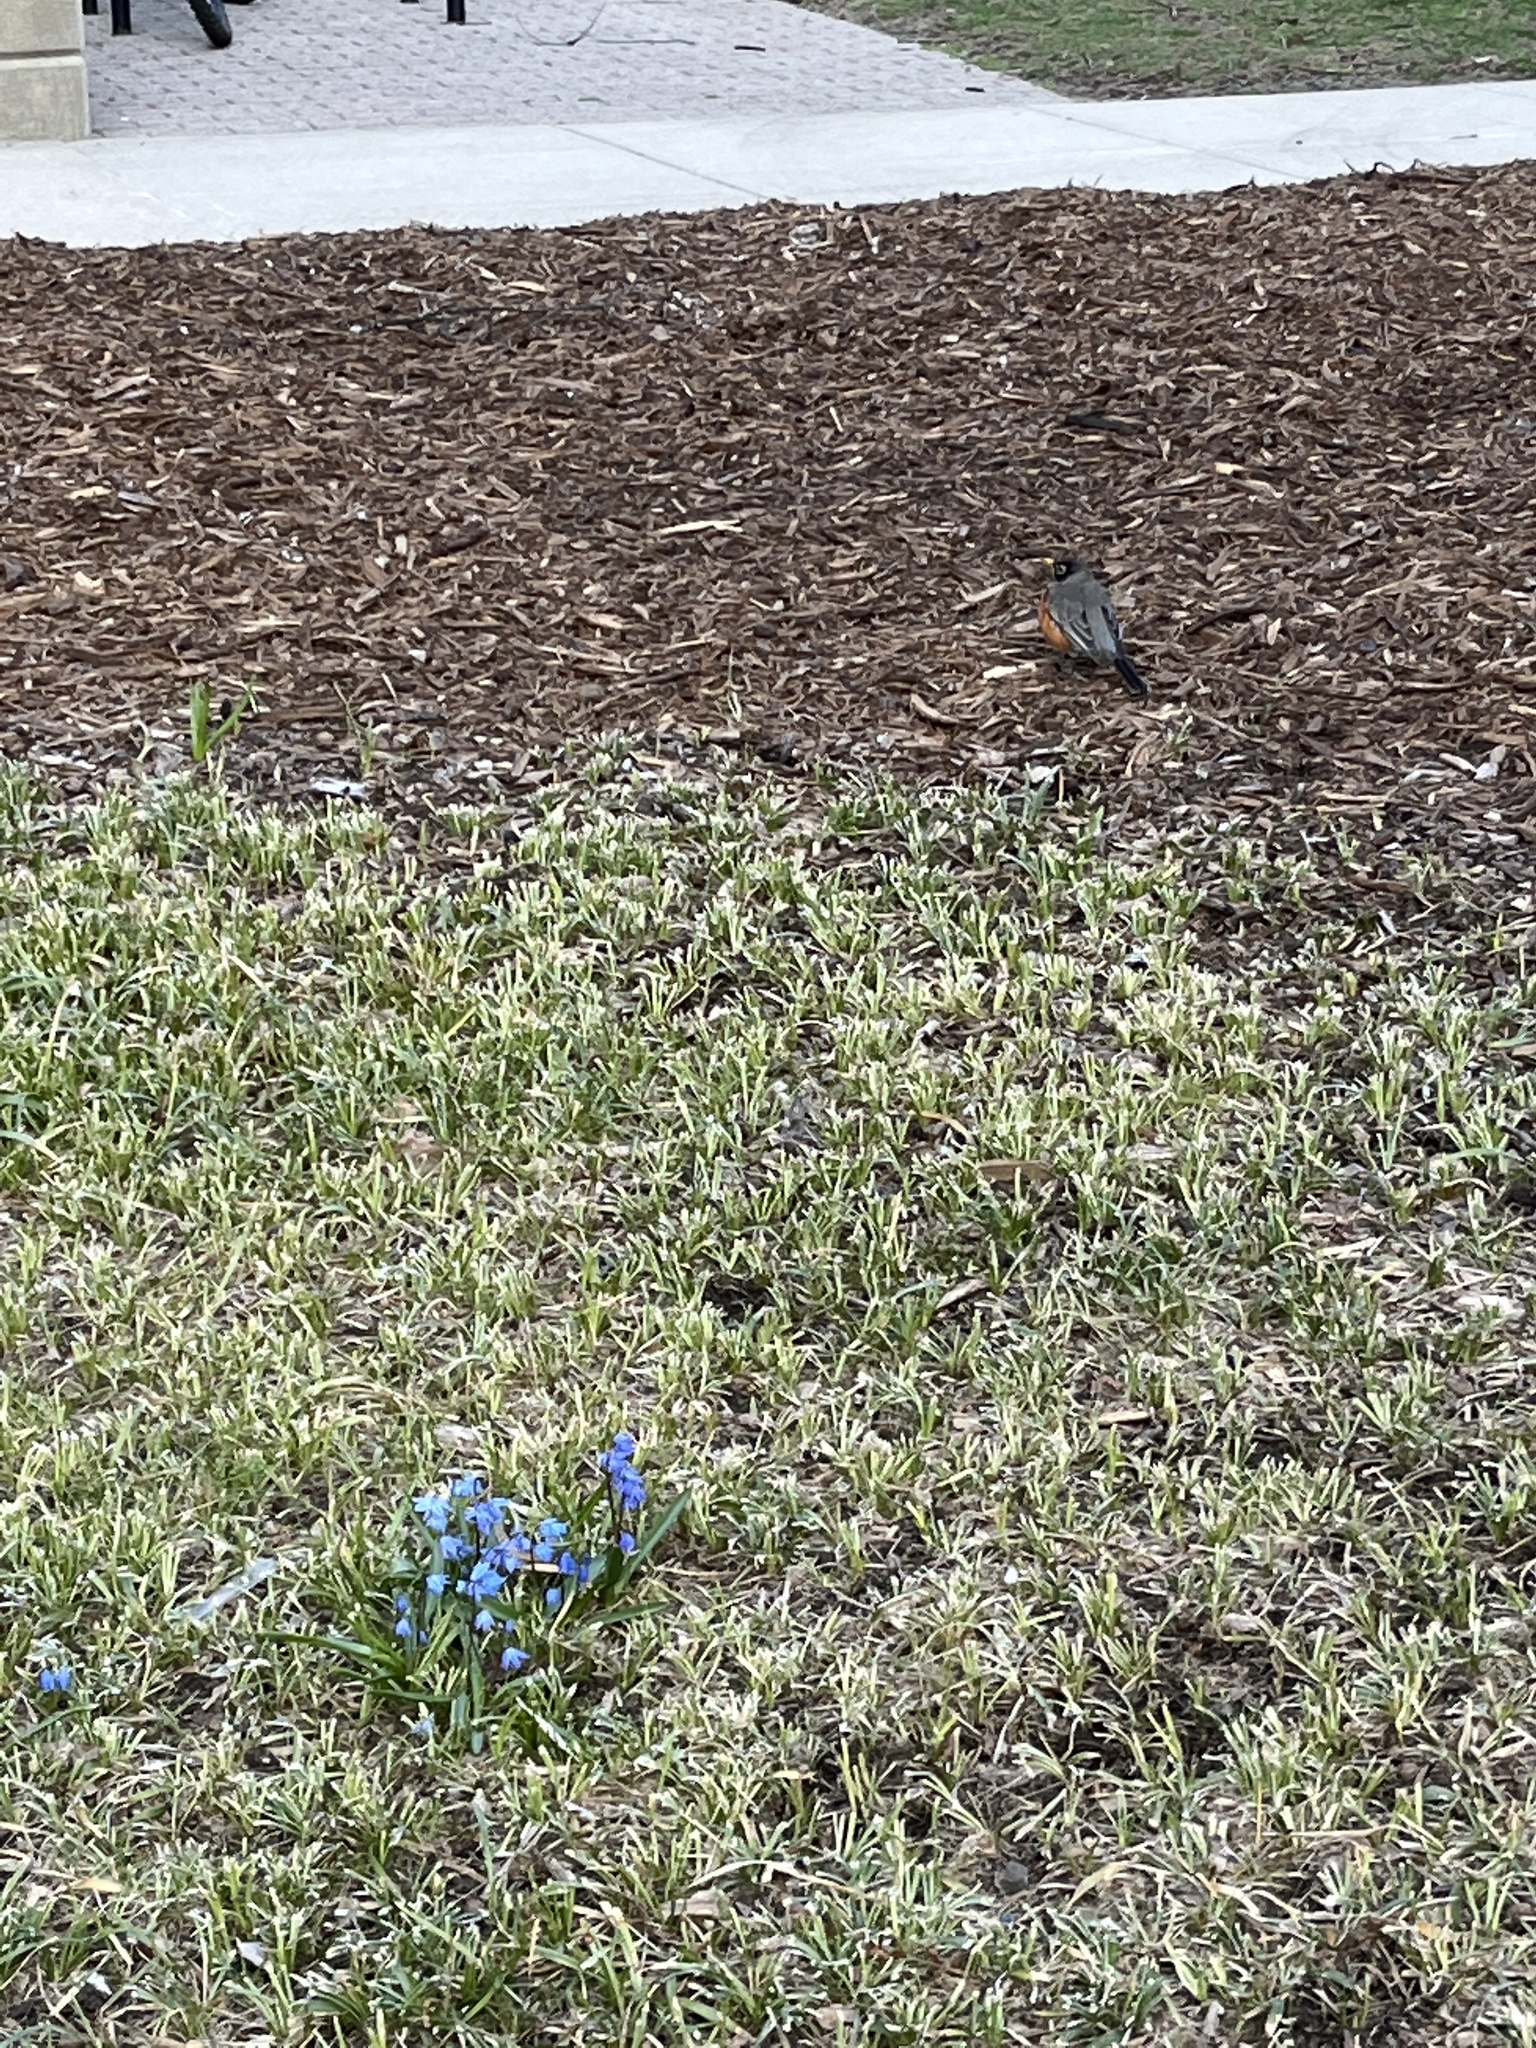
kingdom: Animalia
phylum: Chordata
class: Aves
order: Passeriformes
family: Turdidae
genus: Turdus
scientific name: Turdus migratorius
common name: American robin
